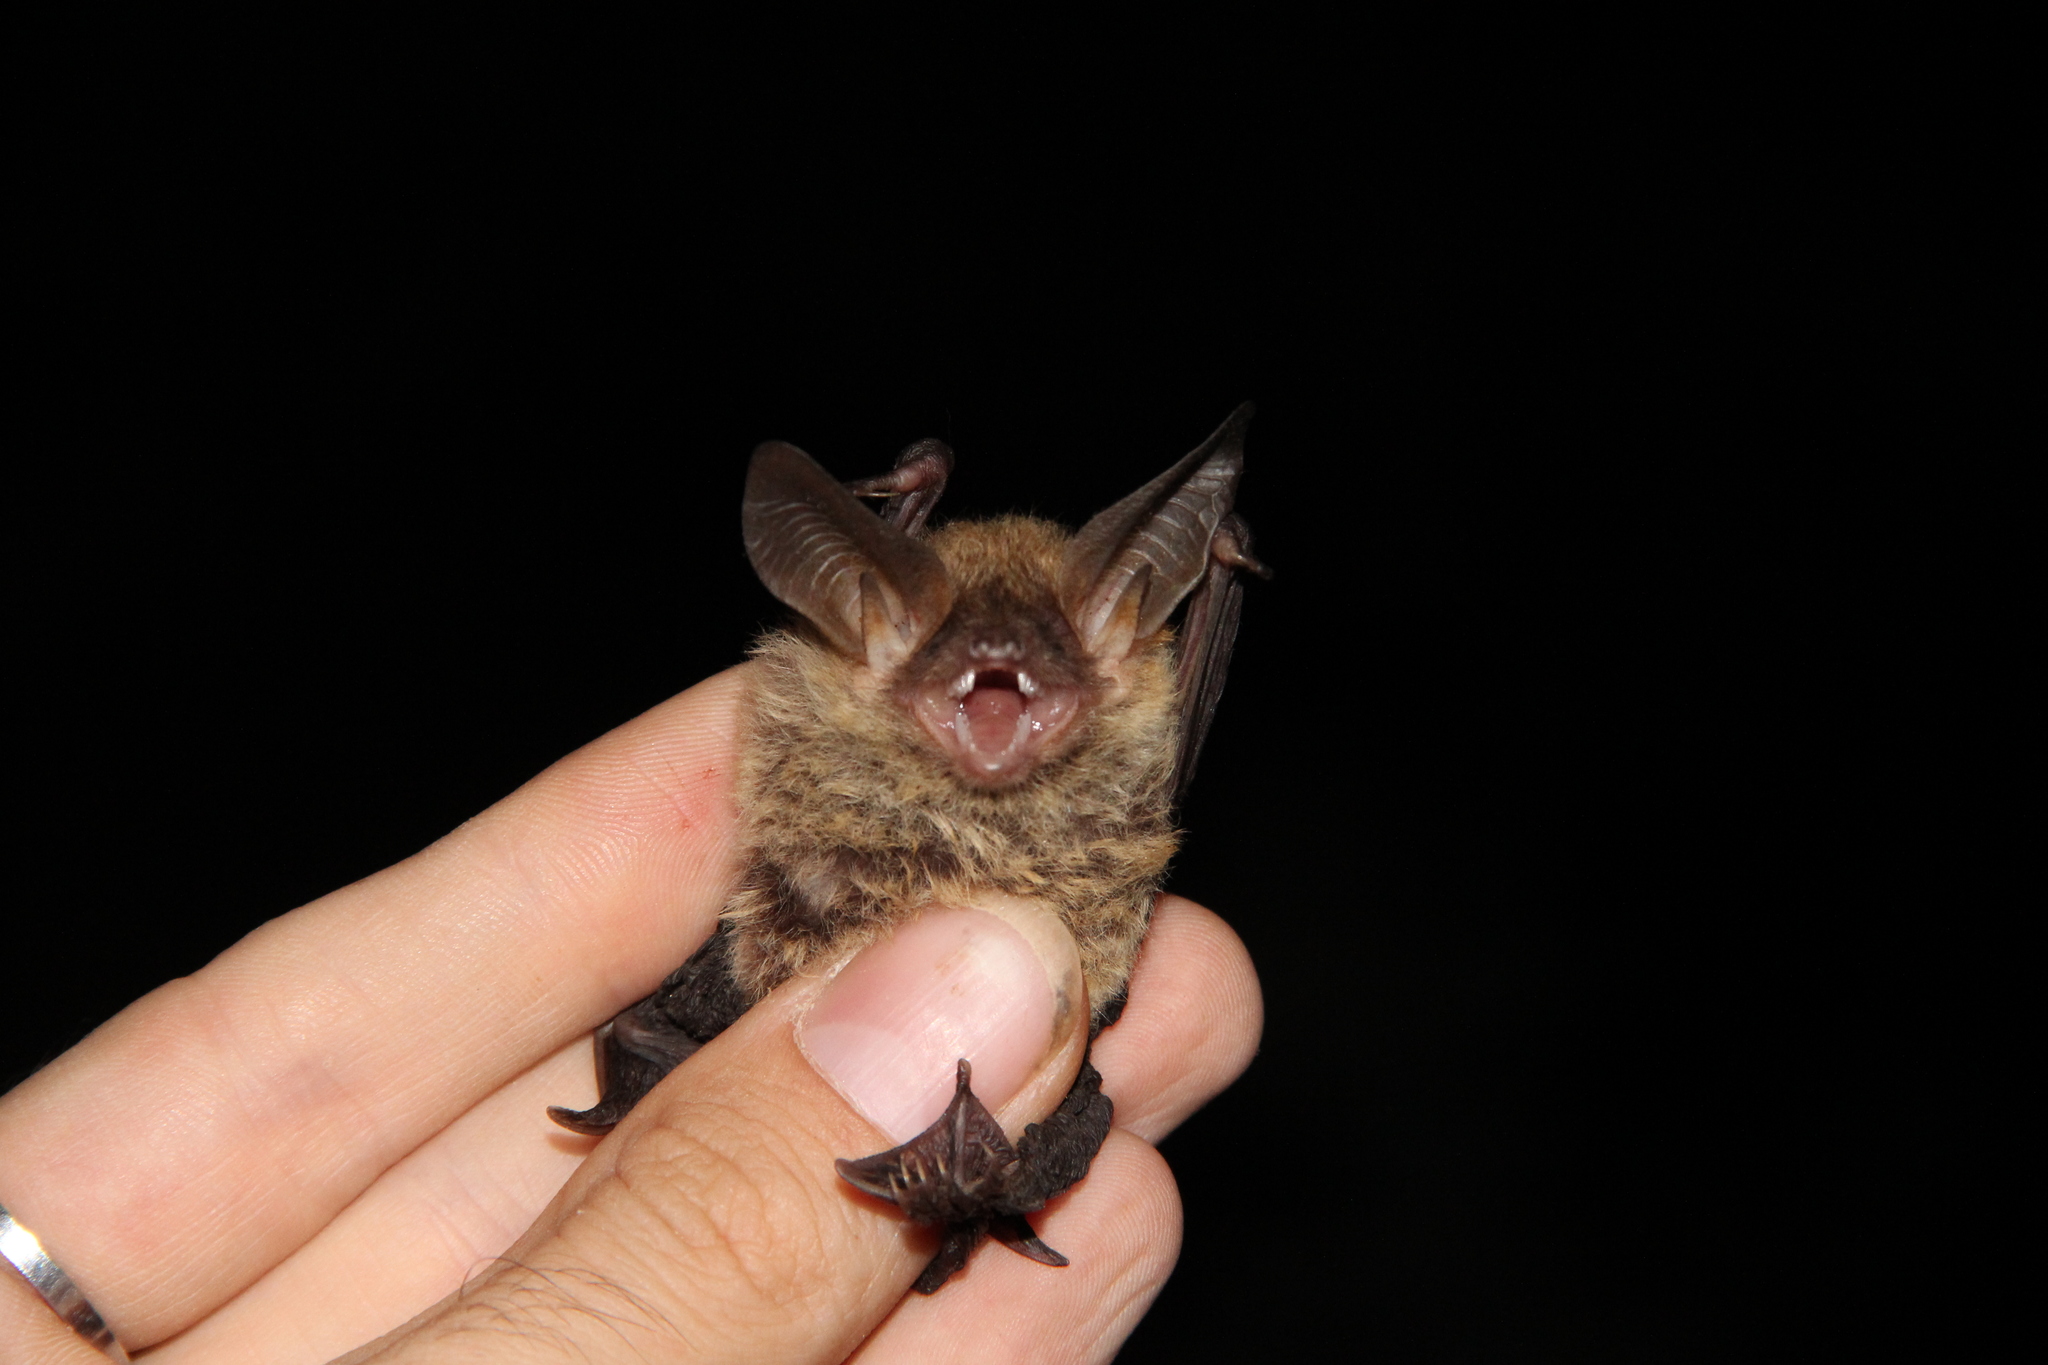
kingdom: Animalia
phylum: Chordata
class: Mammalia
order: Chiroptera
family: Vespertilionidae
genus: Myotis
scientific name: Myotis bechsteinii
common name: Bechstein's myotis
